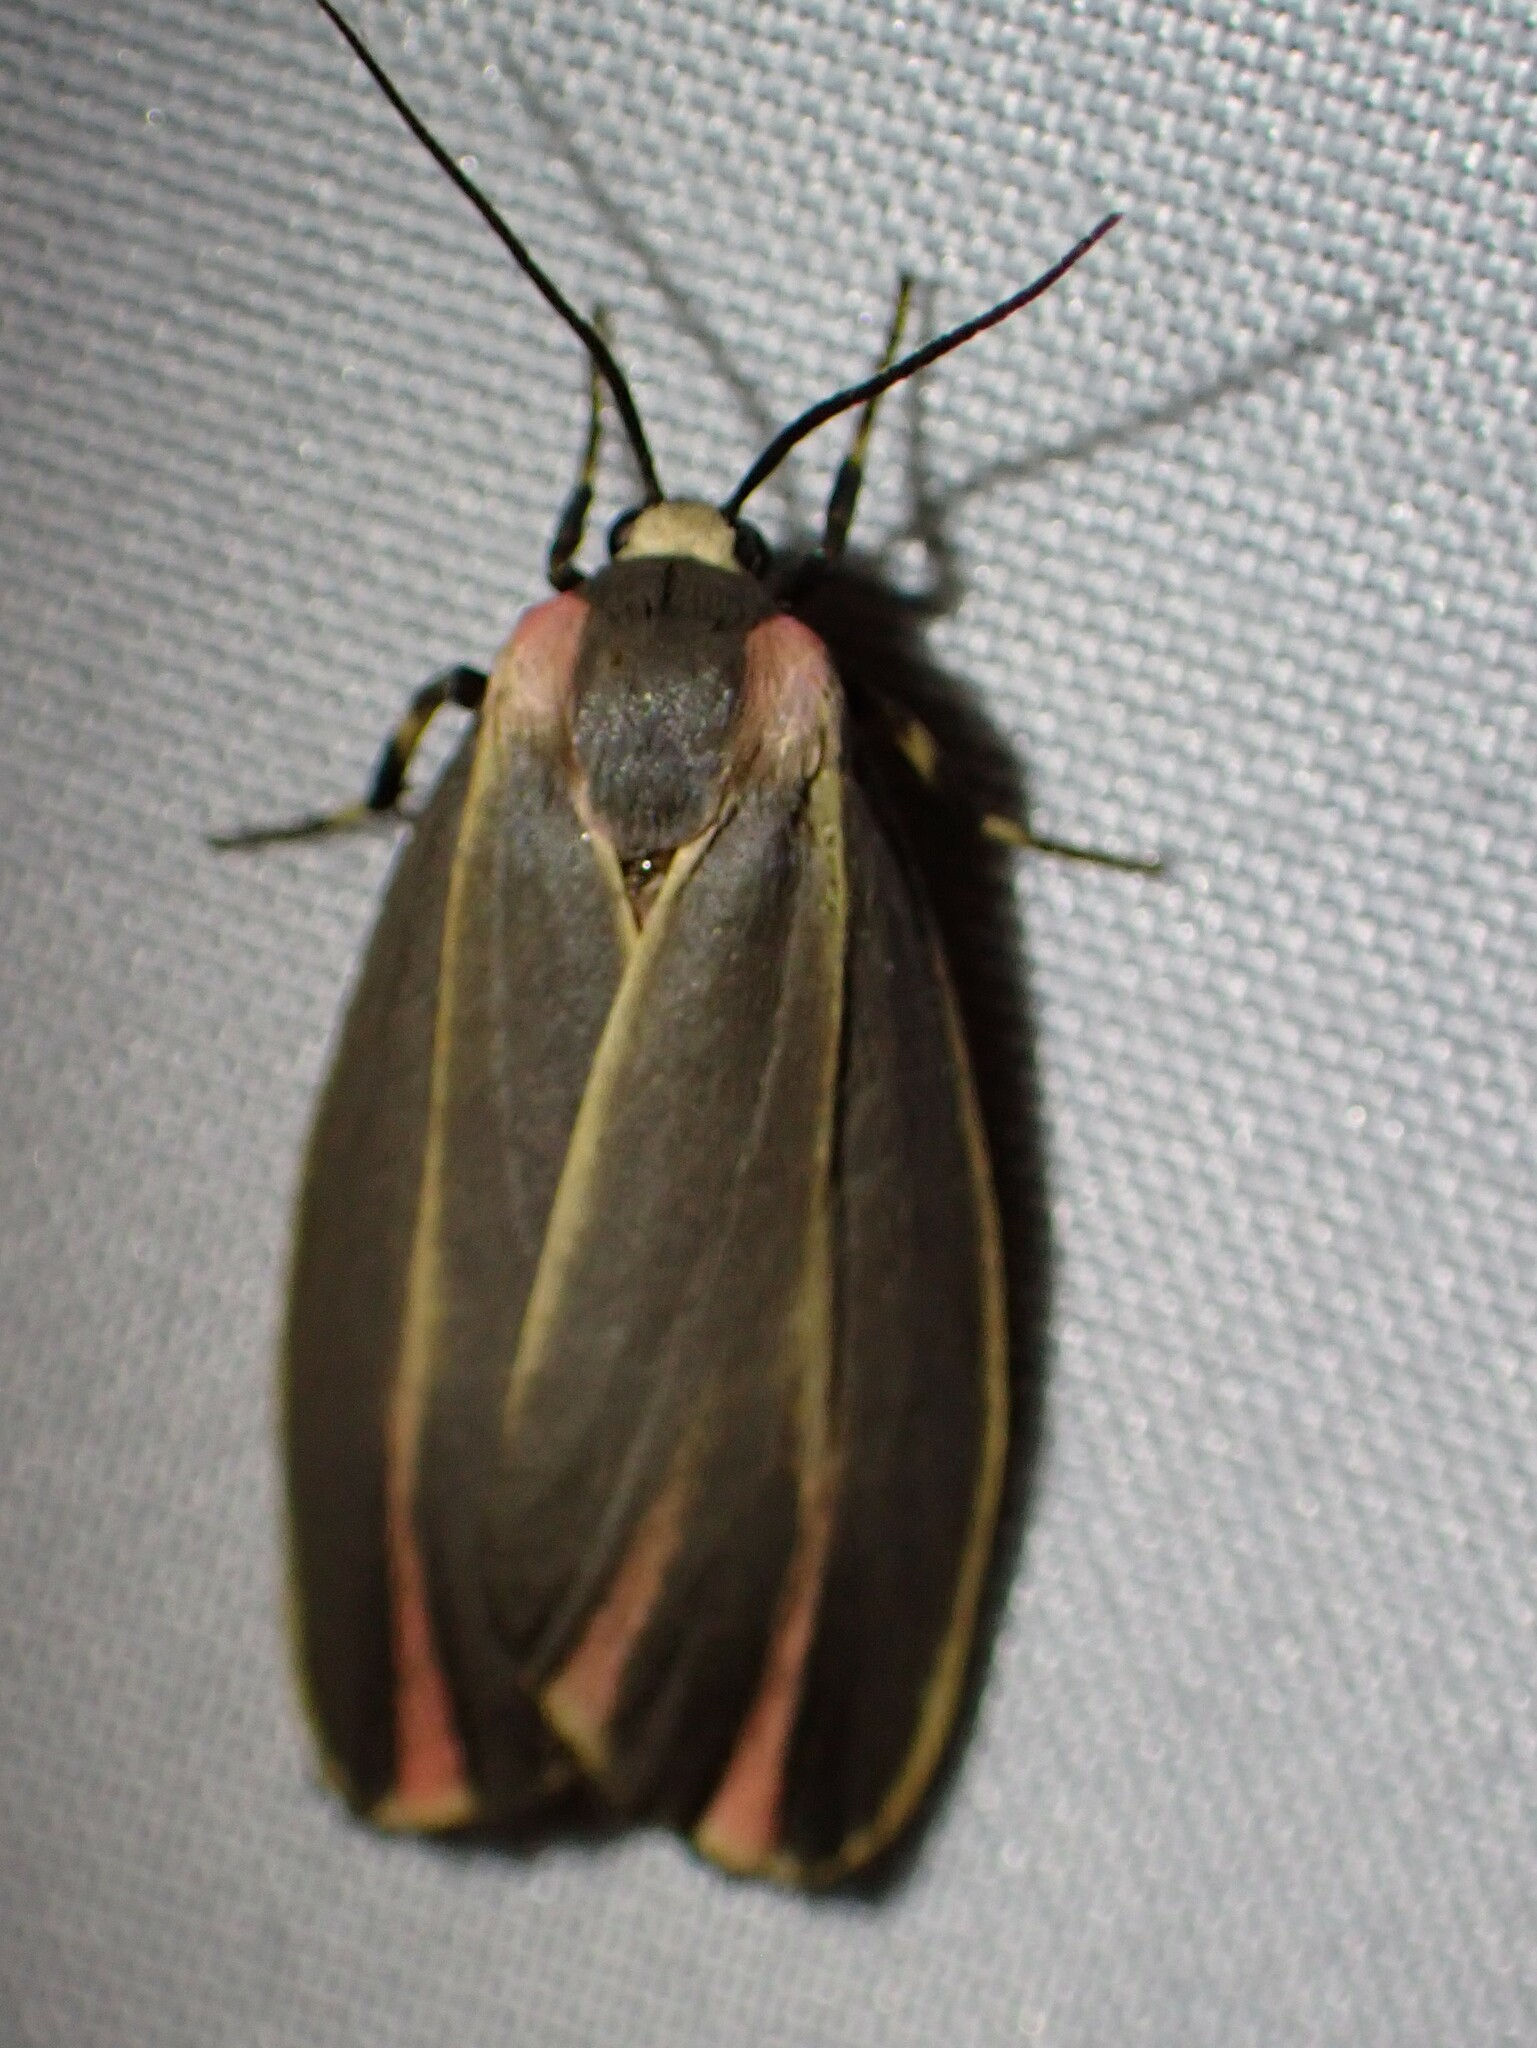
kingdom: Animalia
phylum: Arthropoda
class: Insecta
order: Lepidoptera
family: Erebidae
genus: Hypoprepia
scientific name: Hypoprepia fucosa
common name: Painted lichen moth
